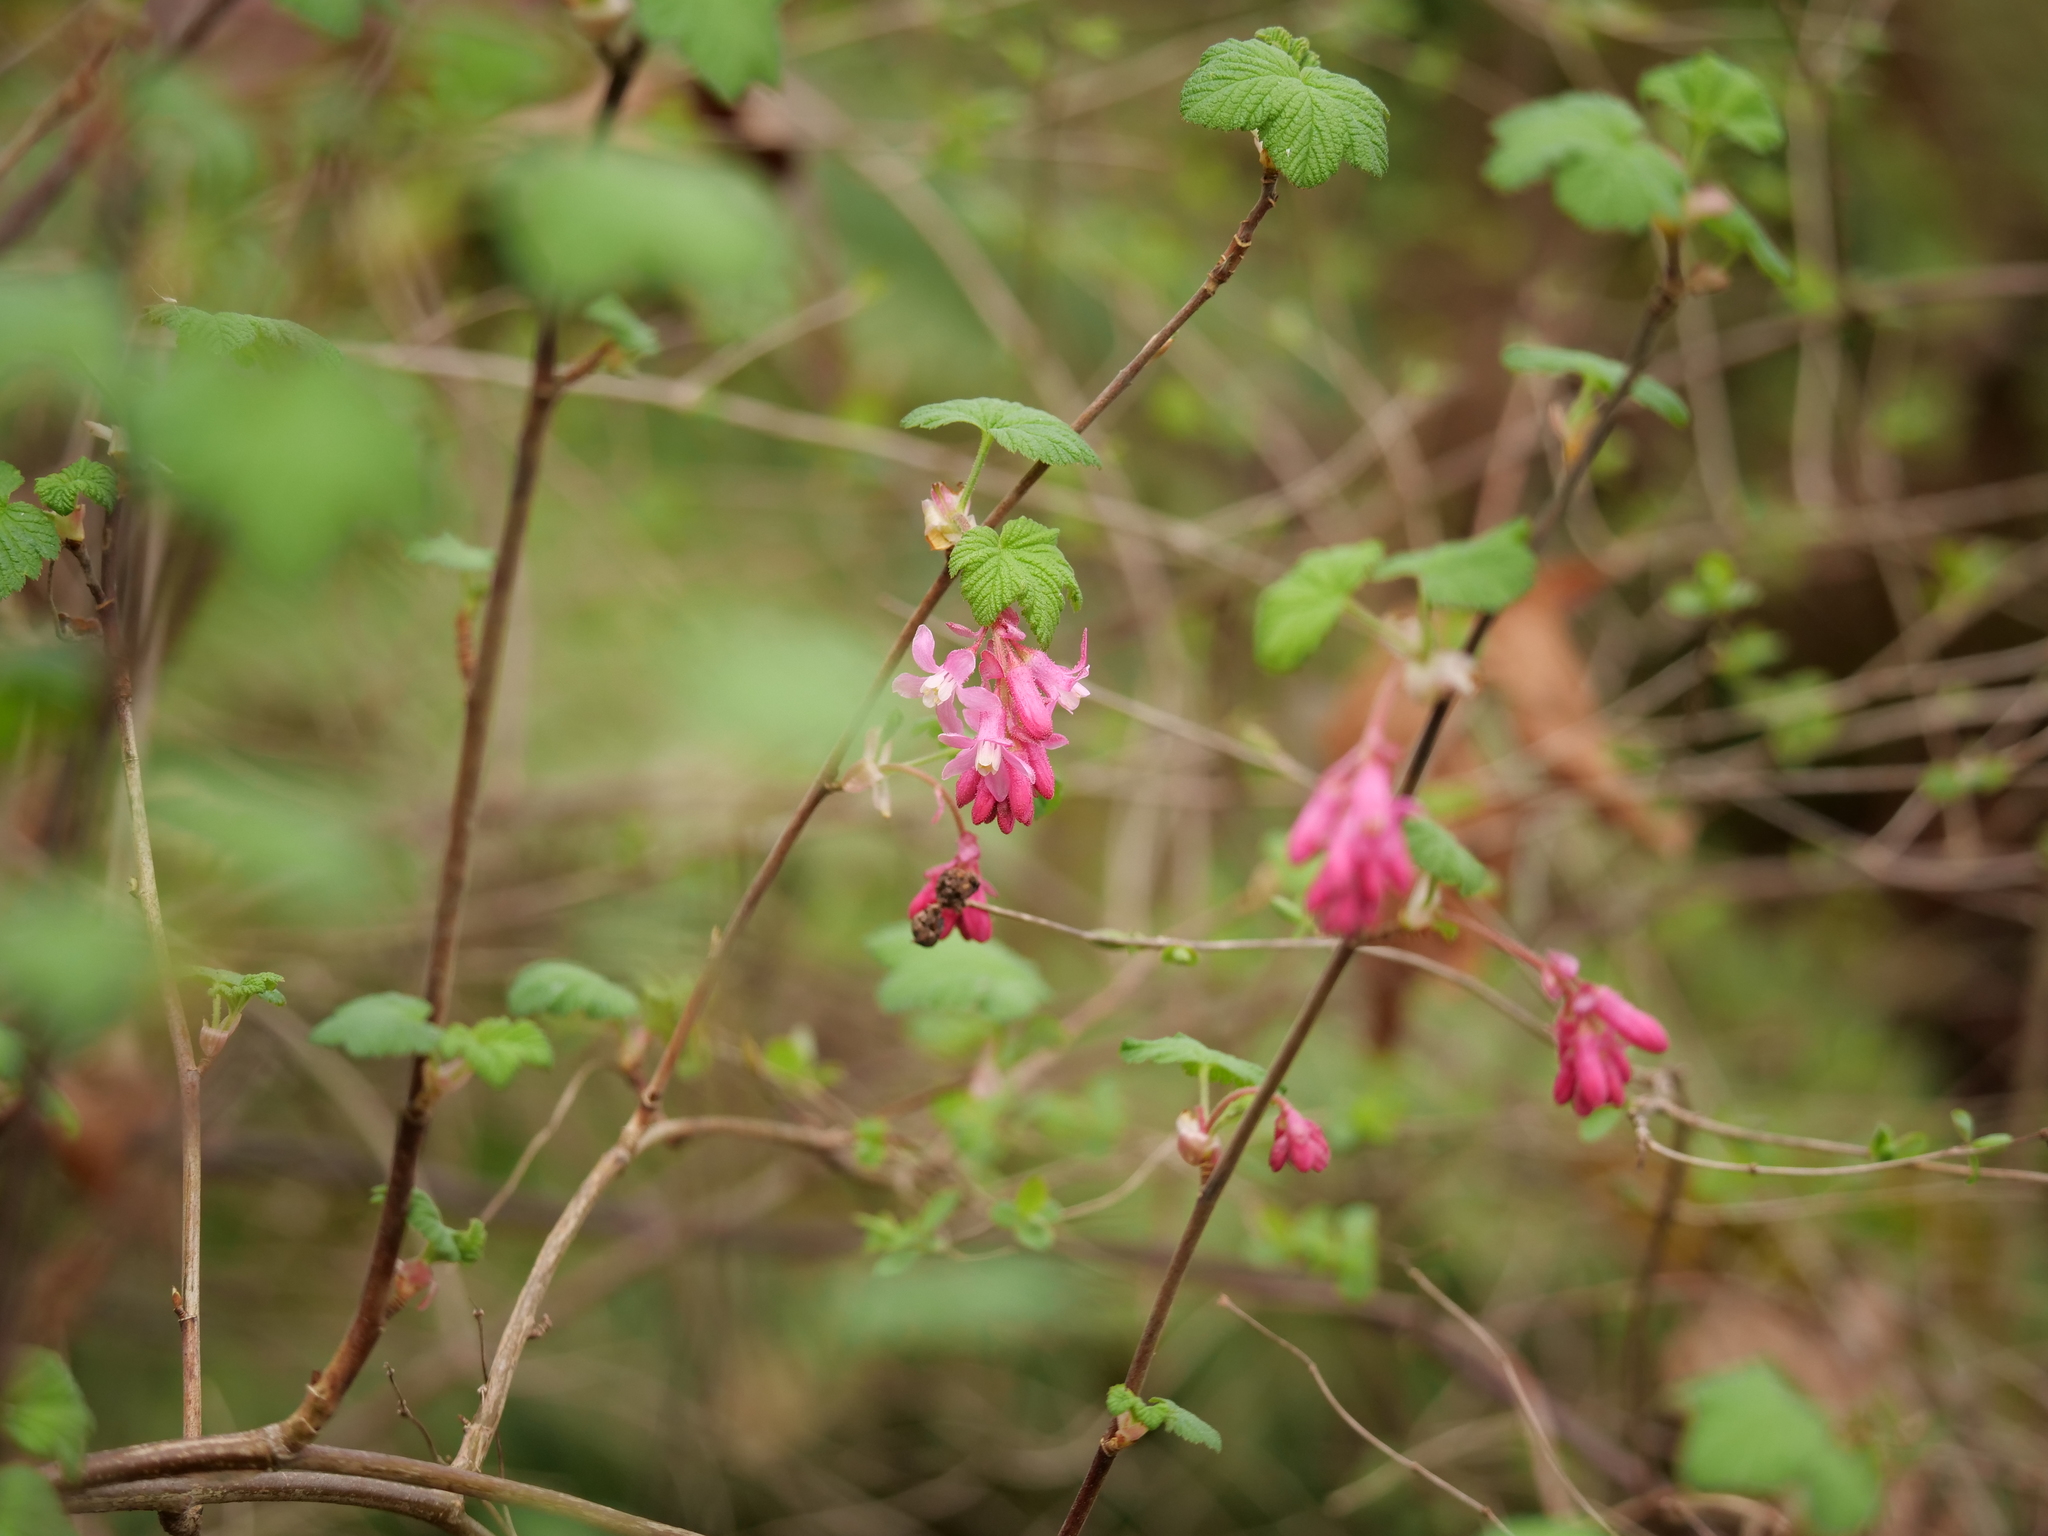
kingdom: Plantae
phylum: Tracheophyta
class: Magnoliopsida
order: Saxifragales
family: Grossulariaceae
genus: Ribes
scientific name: Ribes sanguineum
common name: Flowering currant
